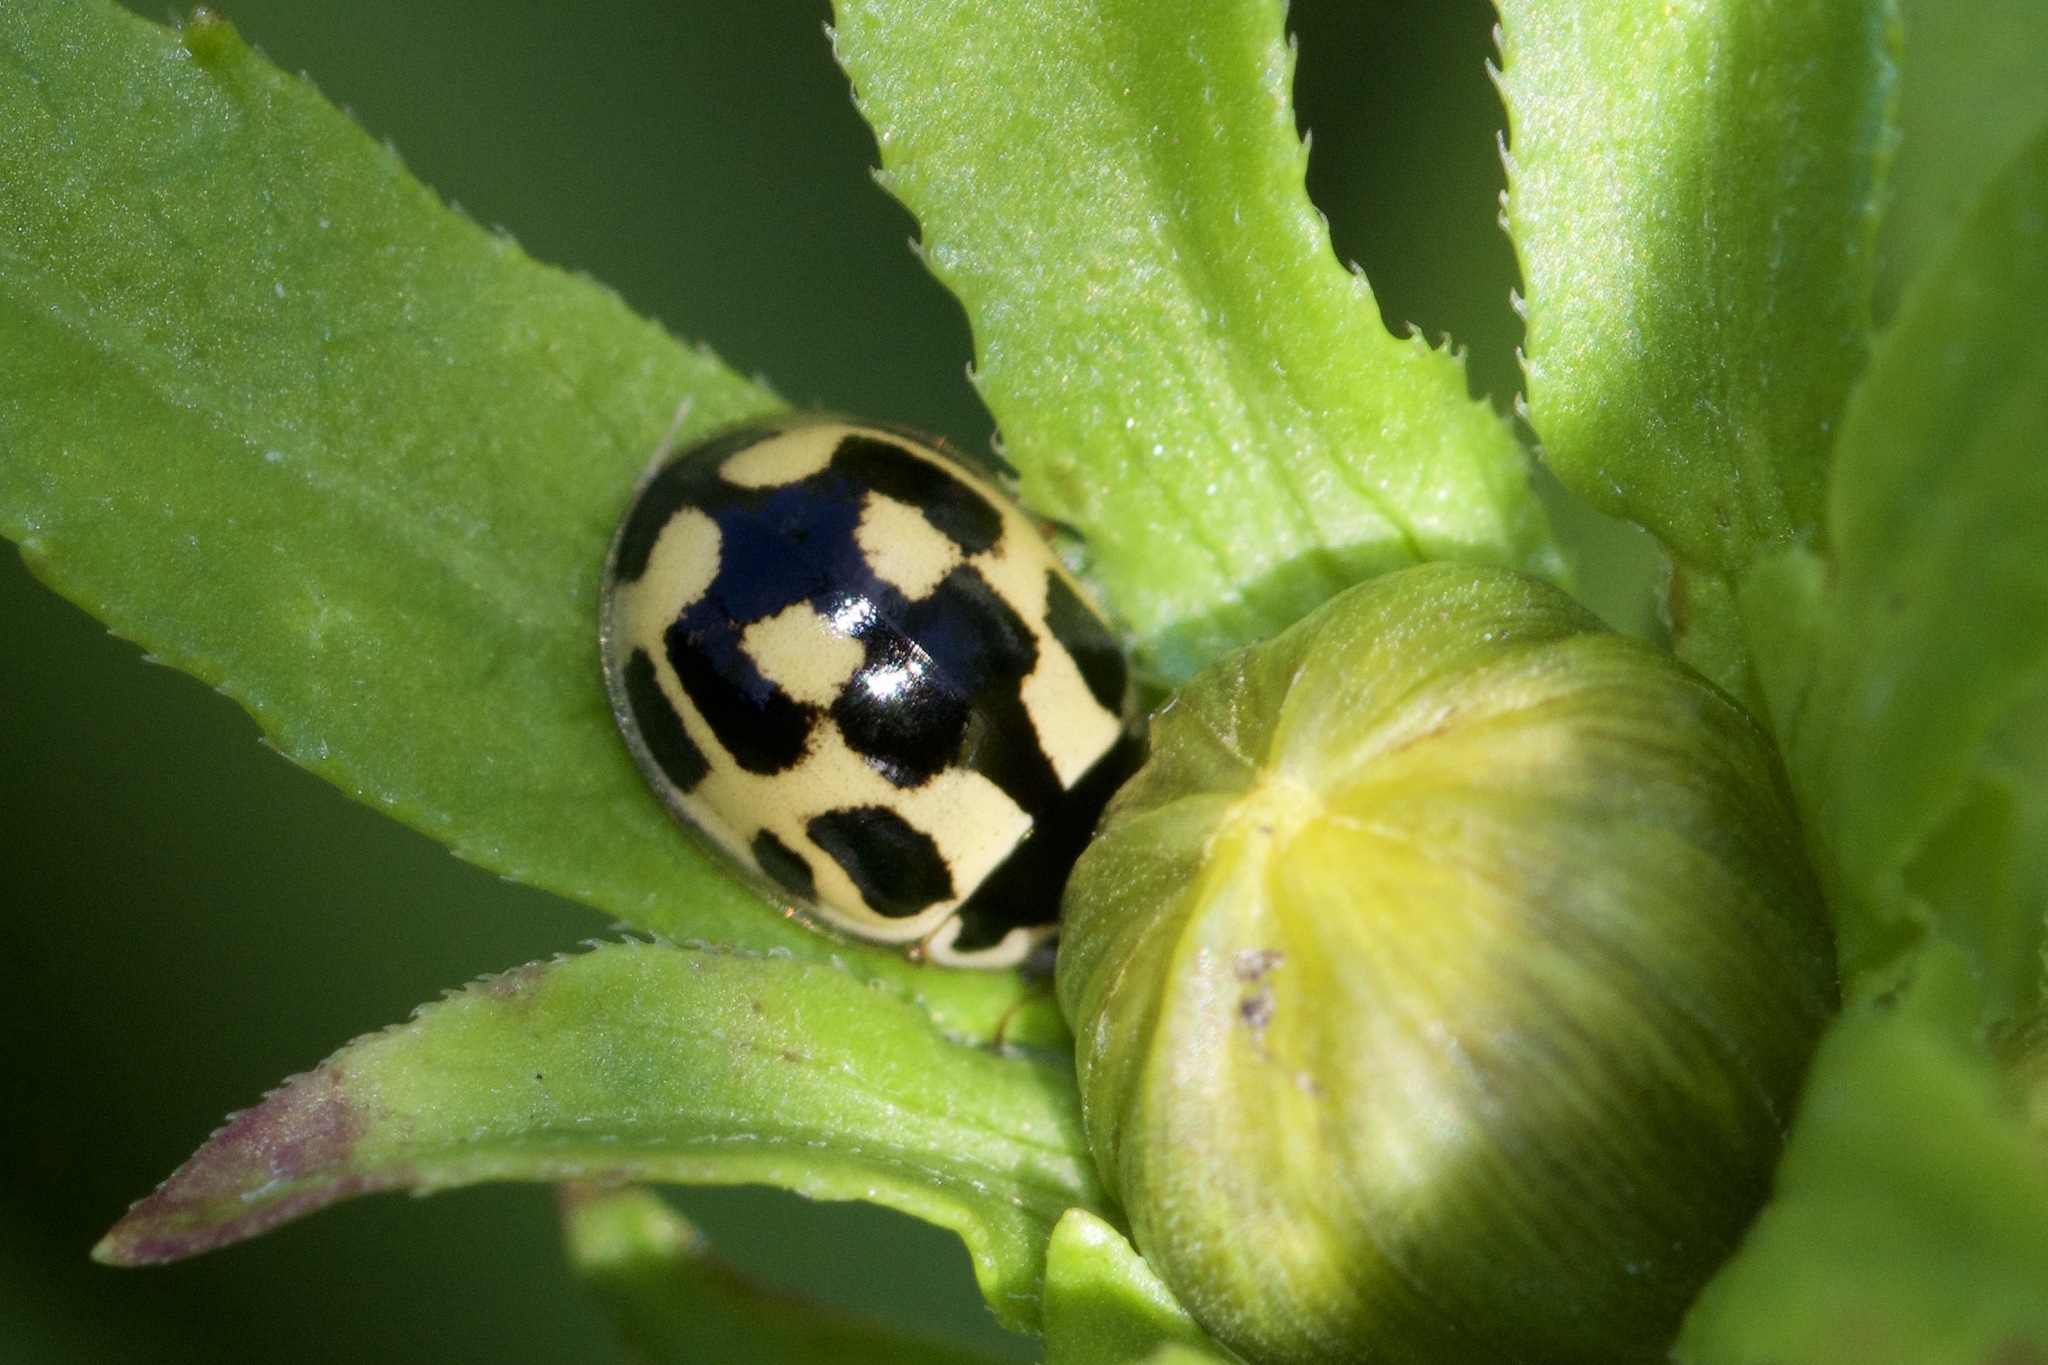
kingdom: Animalia
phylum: Arthropoda
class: Insecta
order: Coleoptera
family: Coccinellidae
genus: Propylaea
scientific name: Propylaea quatuordecimpunctata
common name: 14-spotted ladybird beetle
